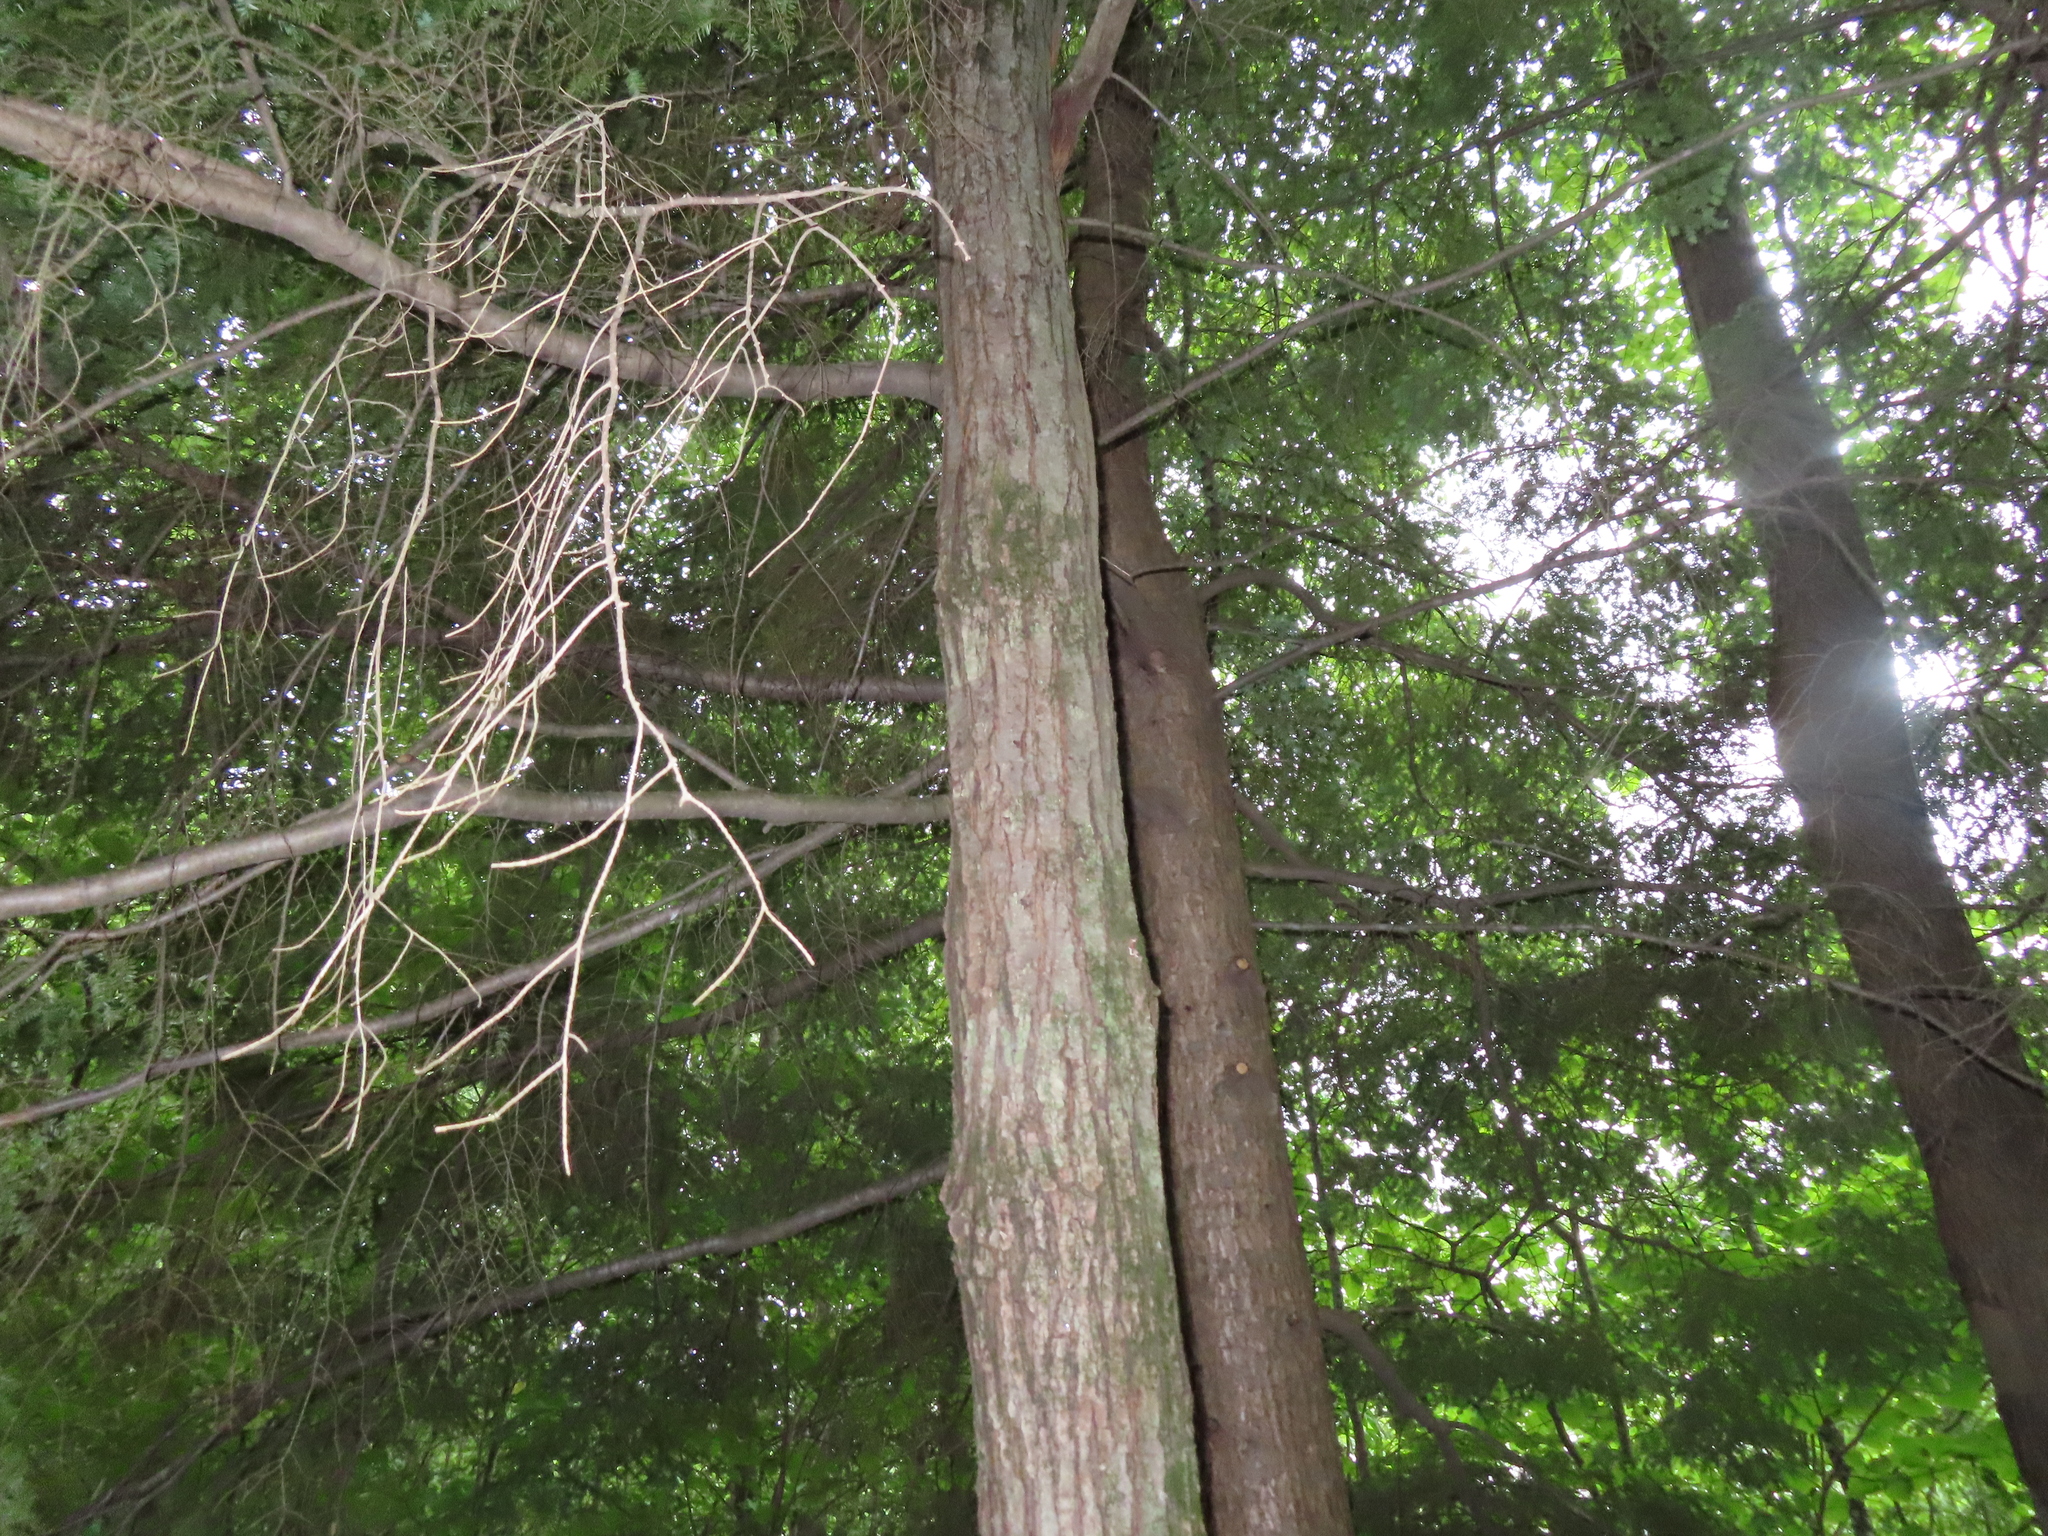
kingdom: Plantae
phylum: Tracheophyta
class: Pinopsida
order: Pinales
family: Pinaceae
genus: Tsuga
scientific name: Tsuga canadensis
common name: Eastern hemlock
